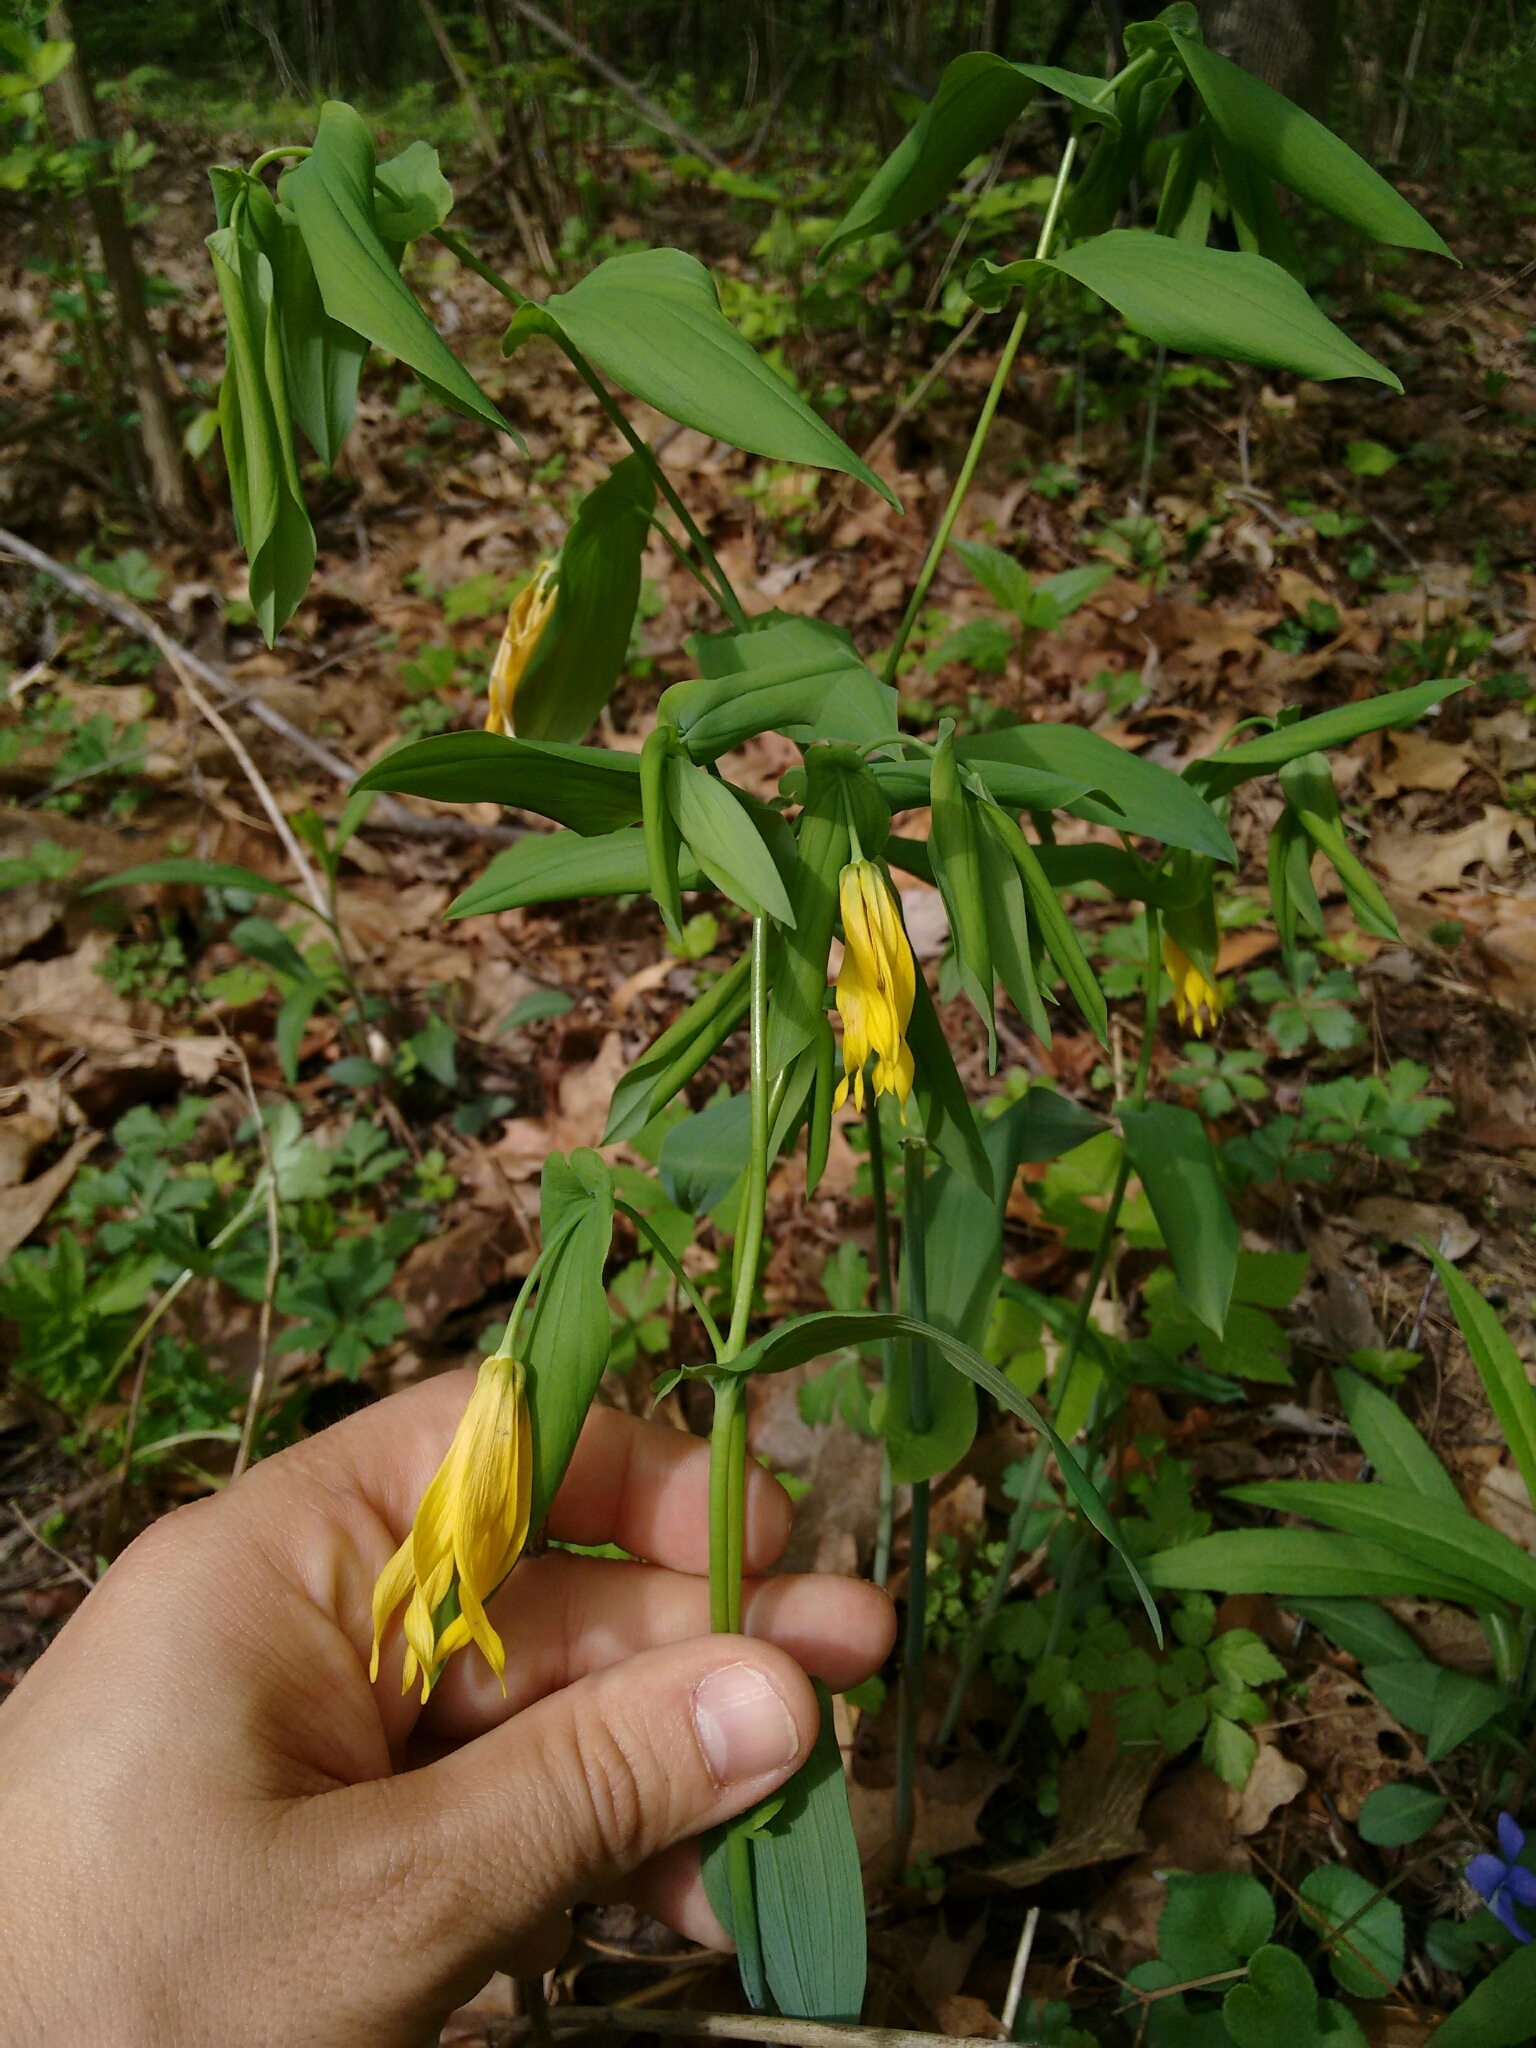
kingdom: Plantae
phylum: Tracheophyta
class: Liliopsida
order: Liliales
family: Colchicaceae
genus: Uvularia
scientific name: Uvularia grandiflora
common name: Bellwort
